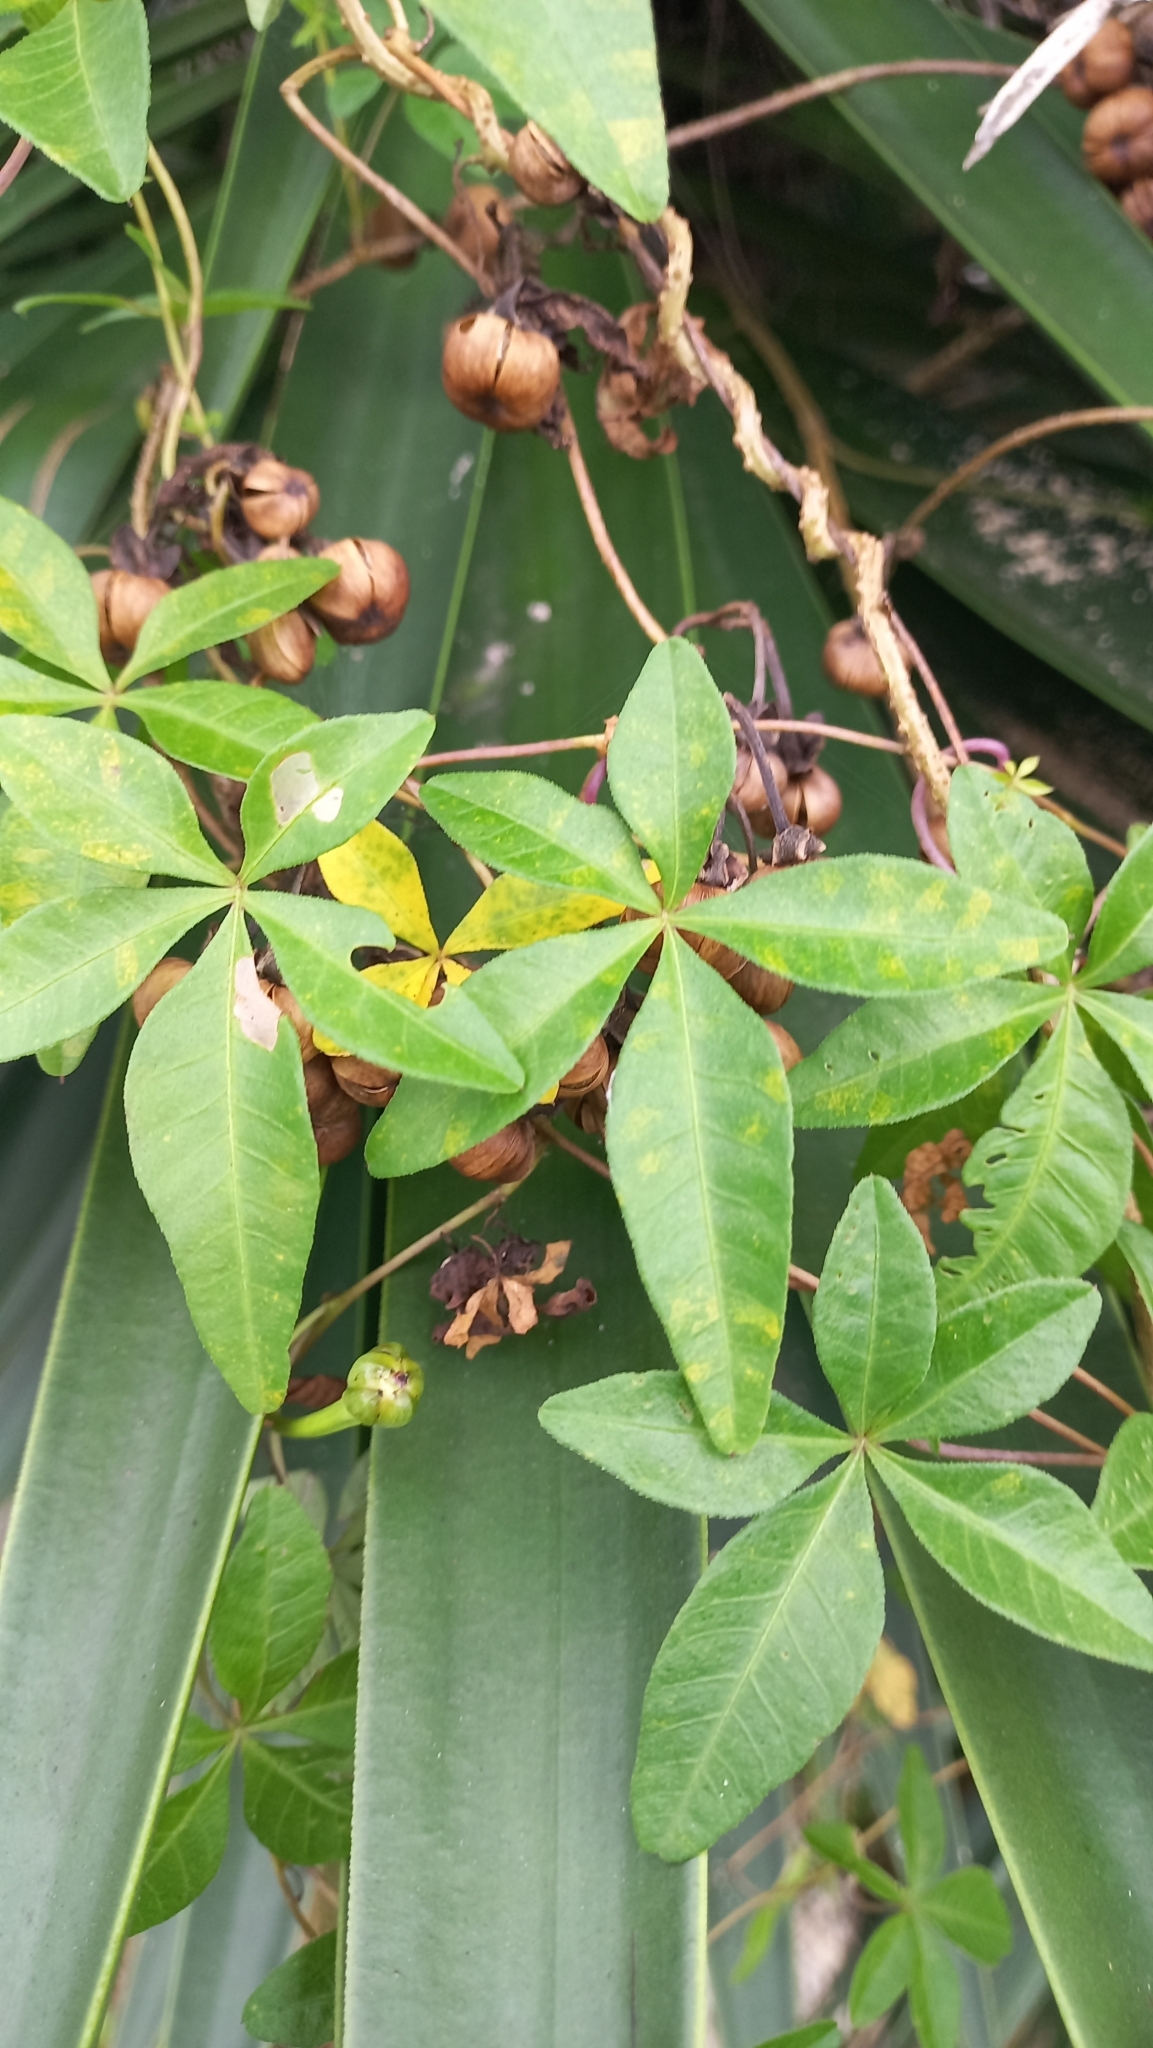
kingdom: Plantae
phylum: Tracheophyta
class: Magnoliopsida
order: Solanales
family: Convolvulaceae
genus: Ipomoea
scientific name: Ipomoea cairica
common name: Mile a minute vine
